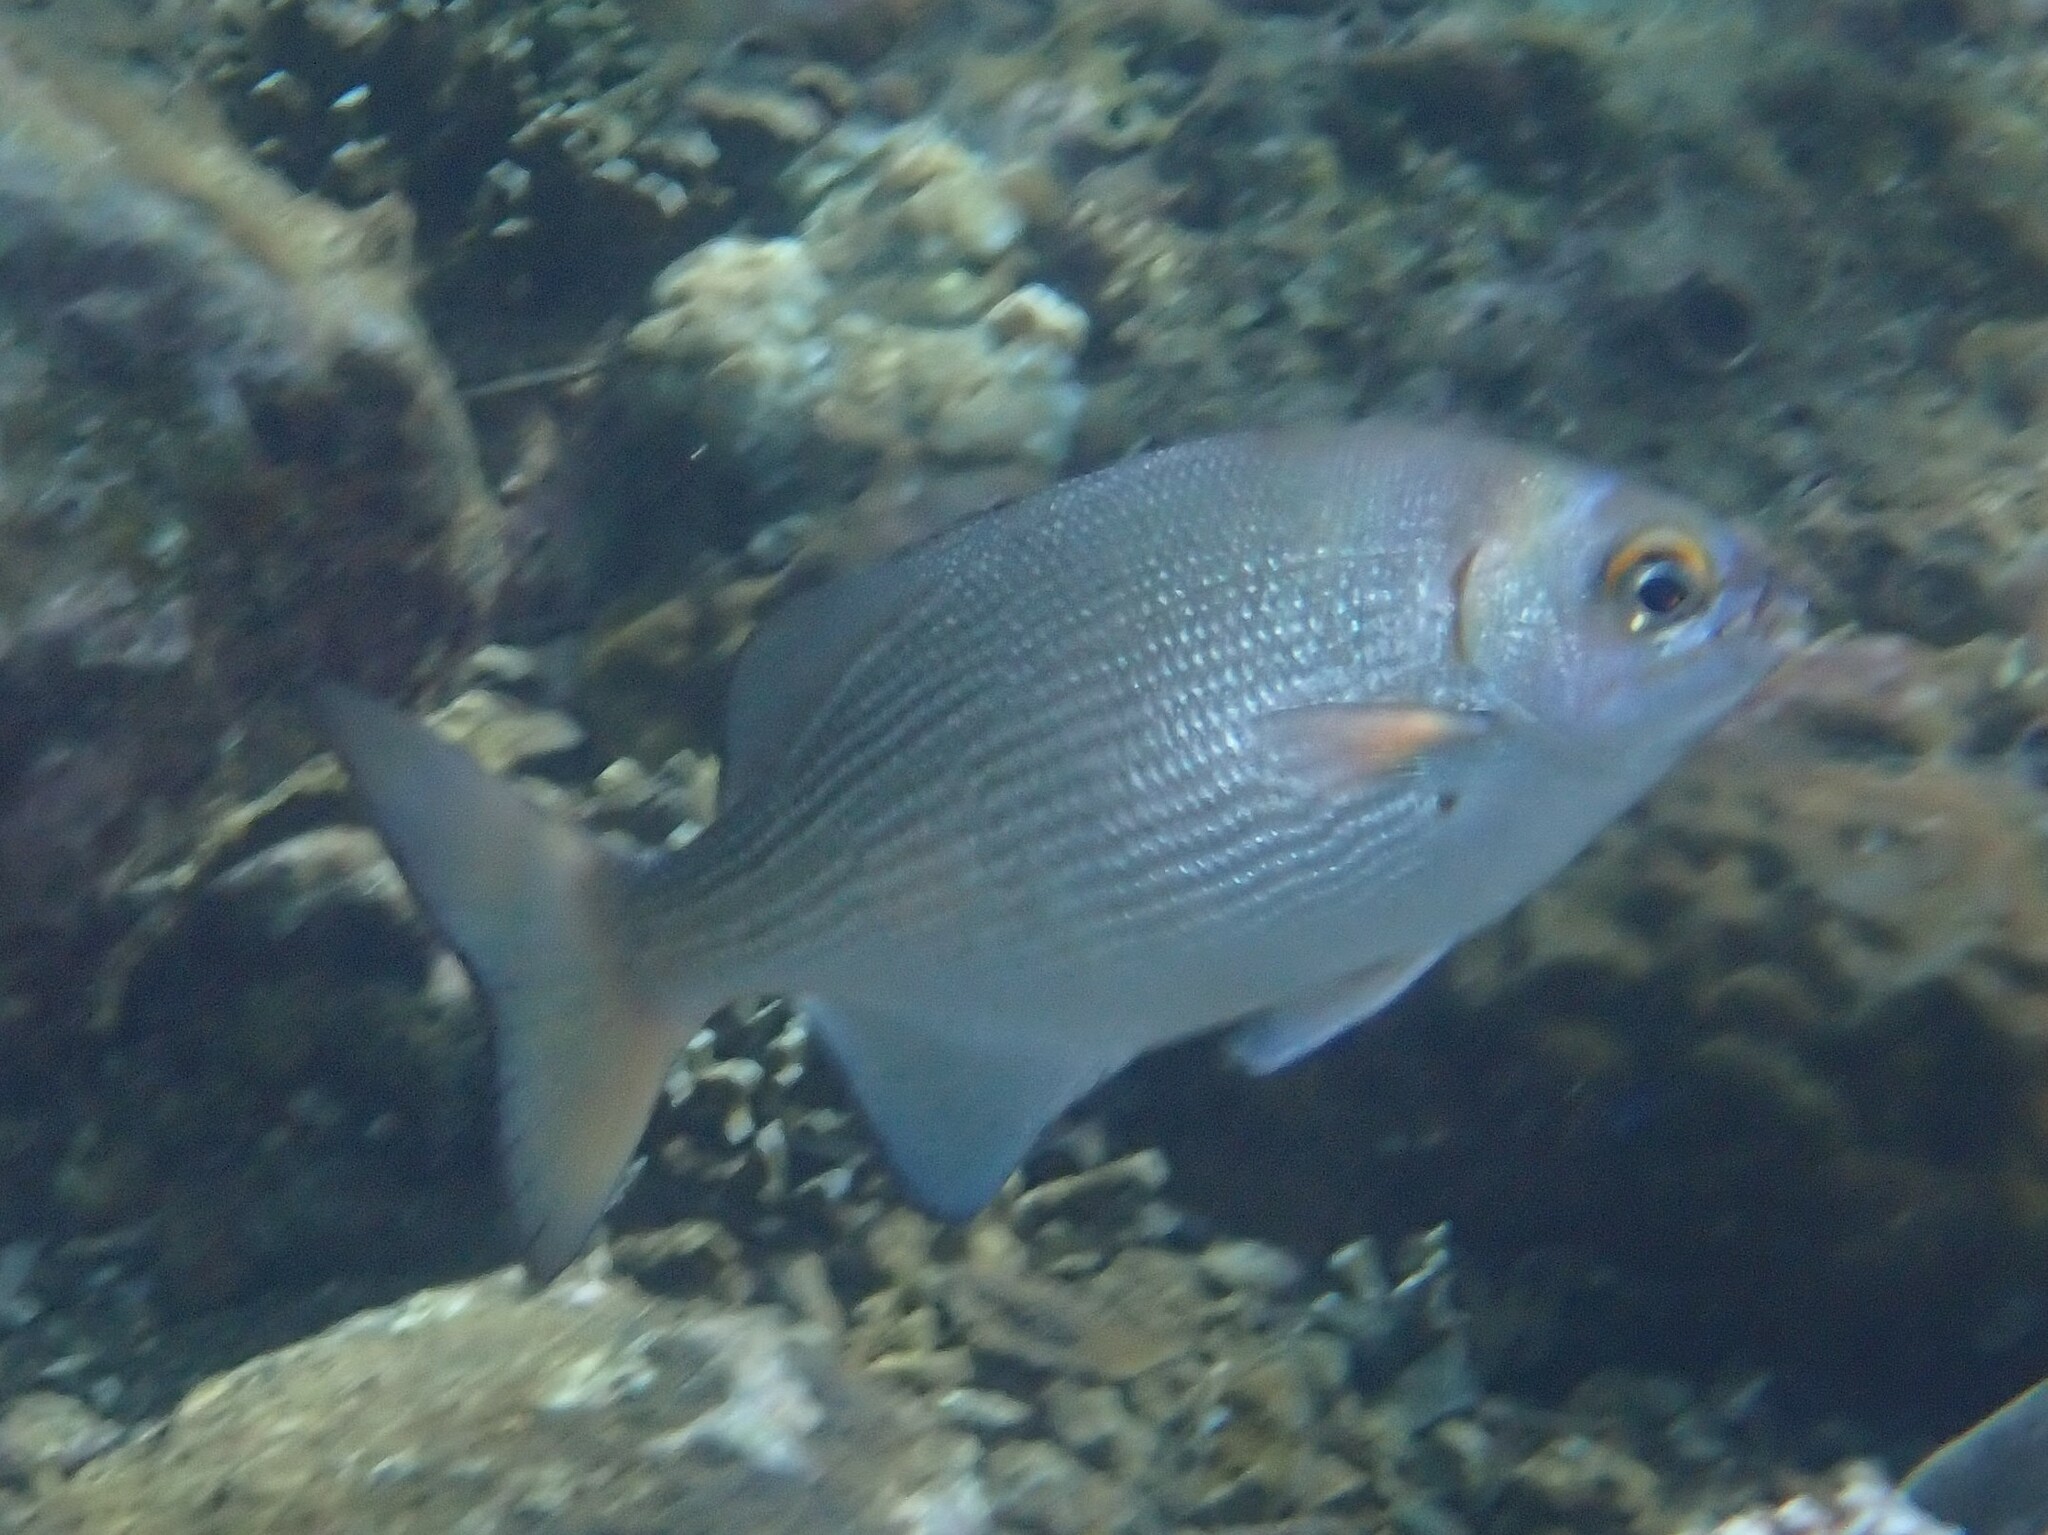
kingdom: Animalia
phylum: Chordata
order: Perciformes
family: Kyphosidae
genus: Kyphosus
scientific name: Kyphosus cinerascens
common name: Topsail drummer
